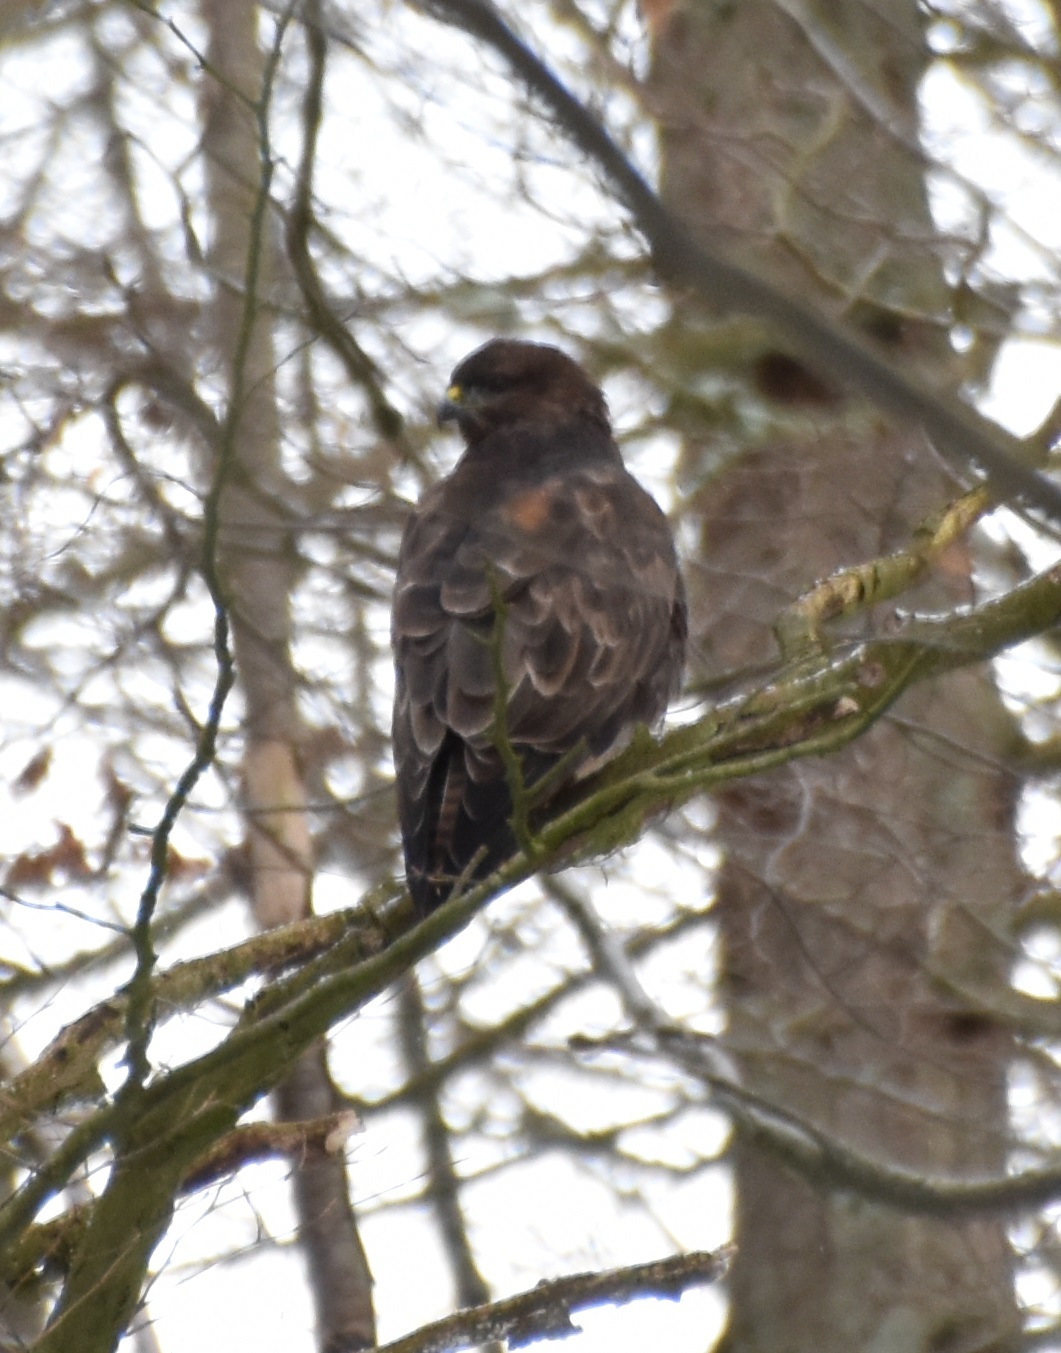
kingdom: Animalia
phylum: Chordata
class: Aves
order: Accipitriformes
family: Accipitridae
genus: Buteo
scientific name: Buteo buteo
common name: Common buzzard
